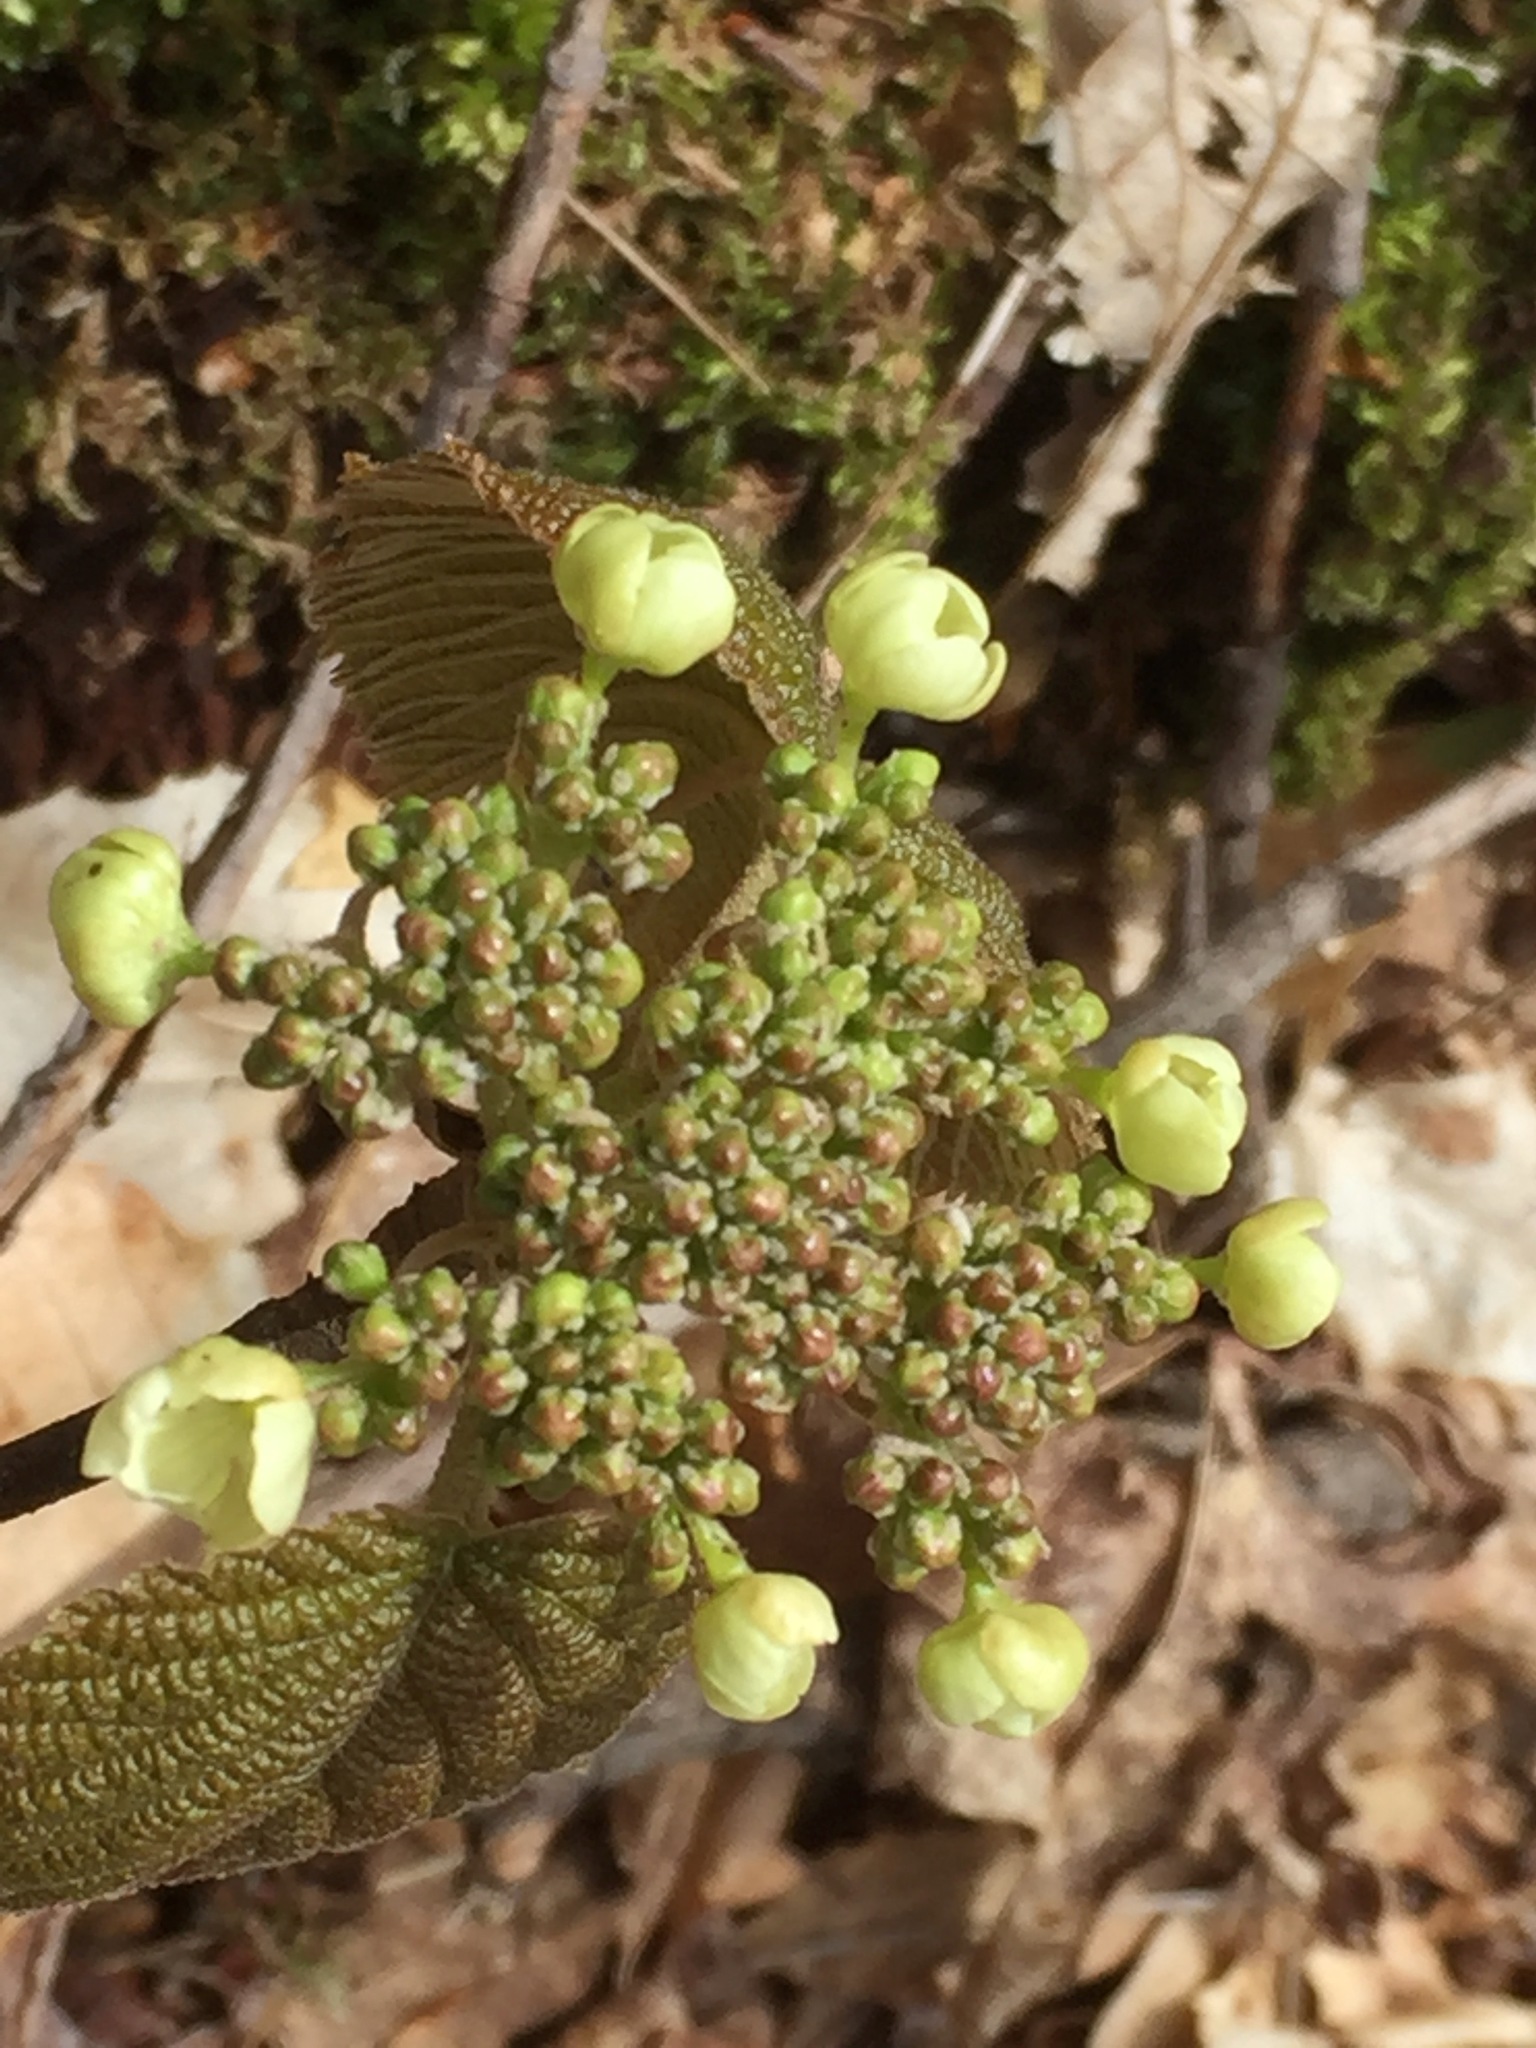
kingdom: Plantae
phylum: Tracheophyta
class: Magnoliopsida
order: Dipsacales
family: Viburnaceae
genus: Viburnum
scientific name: Viburnum lantanoides
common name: Hobblebush
